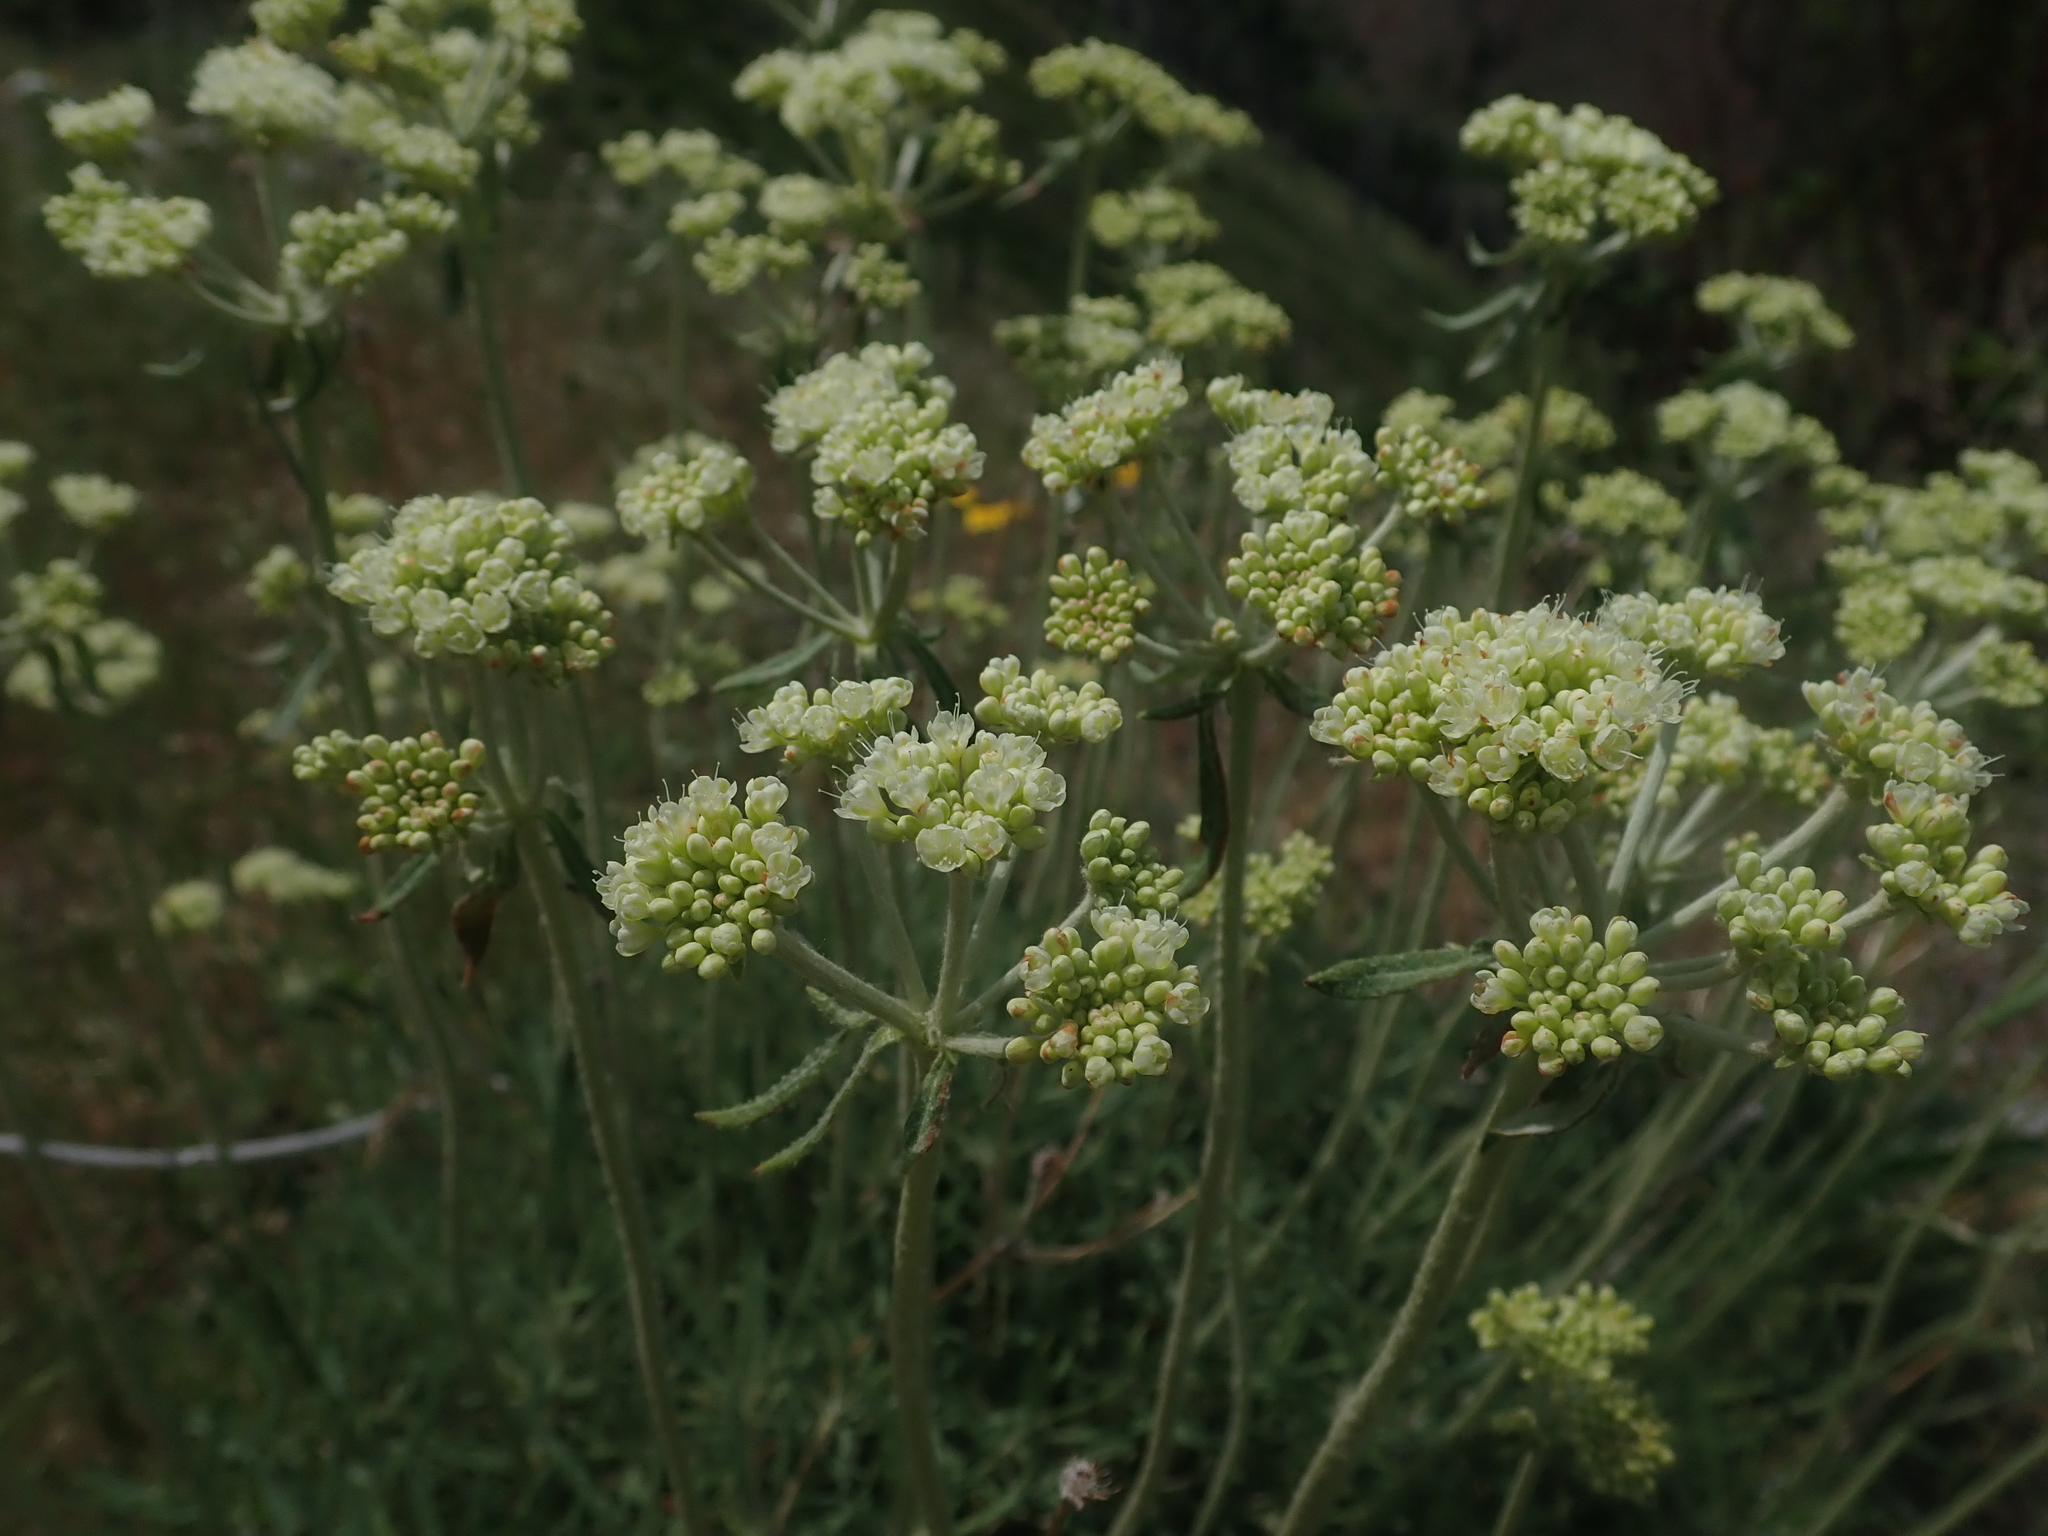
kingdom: Plantae
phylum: Tracheophyta
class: Magnoliopsida
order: Caryophyllales
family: Polygonaceae
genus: Eriogonum
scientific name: Eriogonum heracleoides
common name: Wyeth's buckwheat
